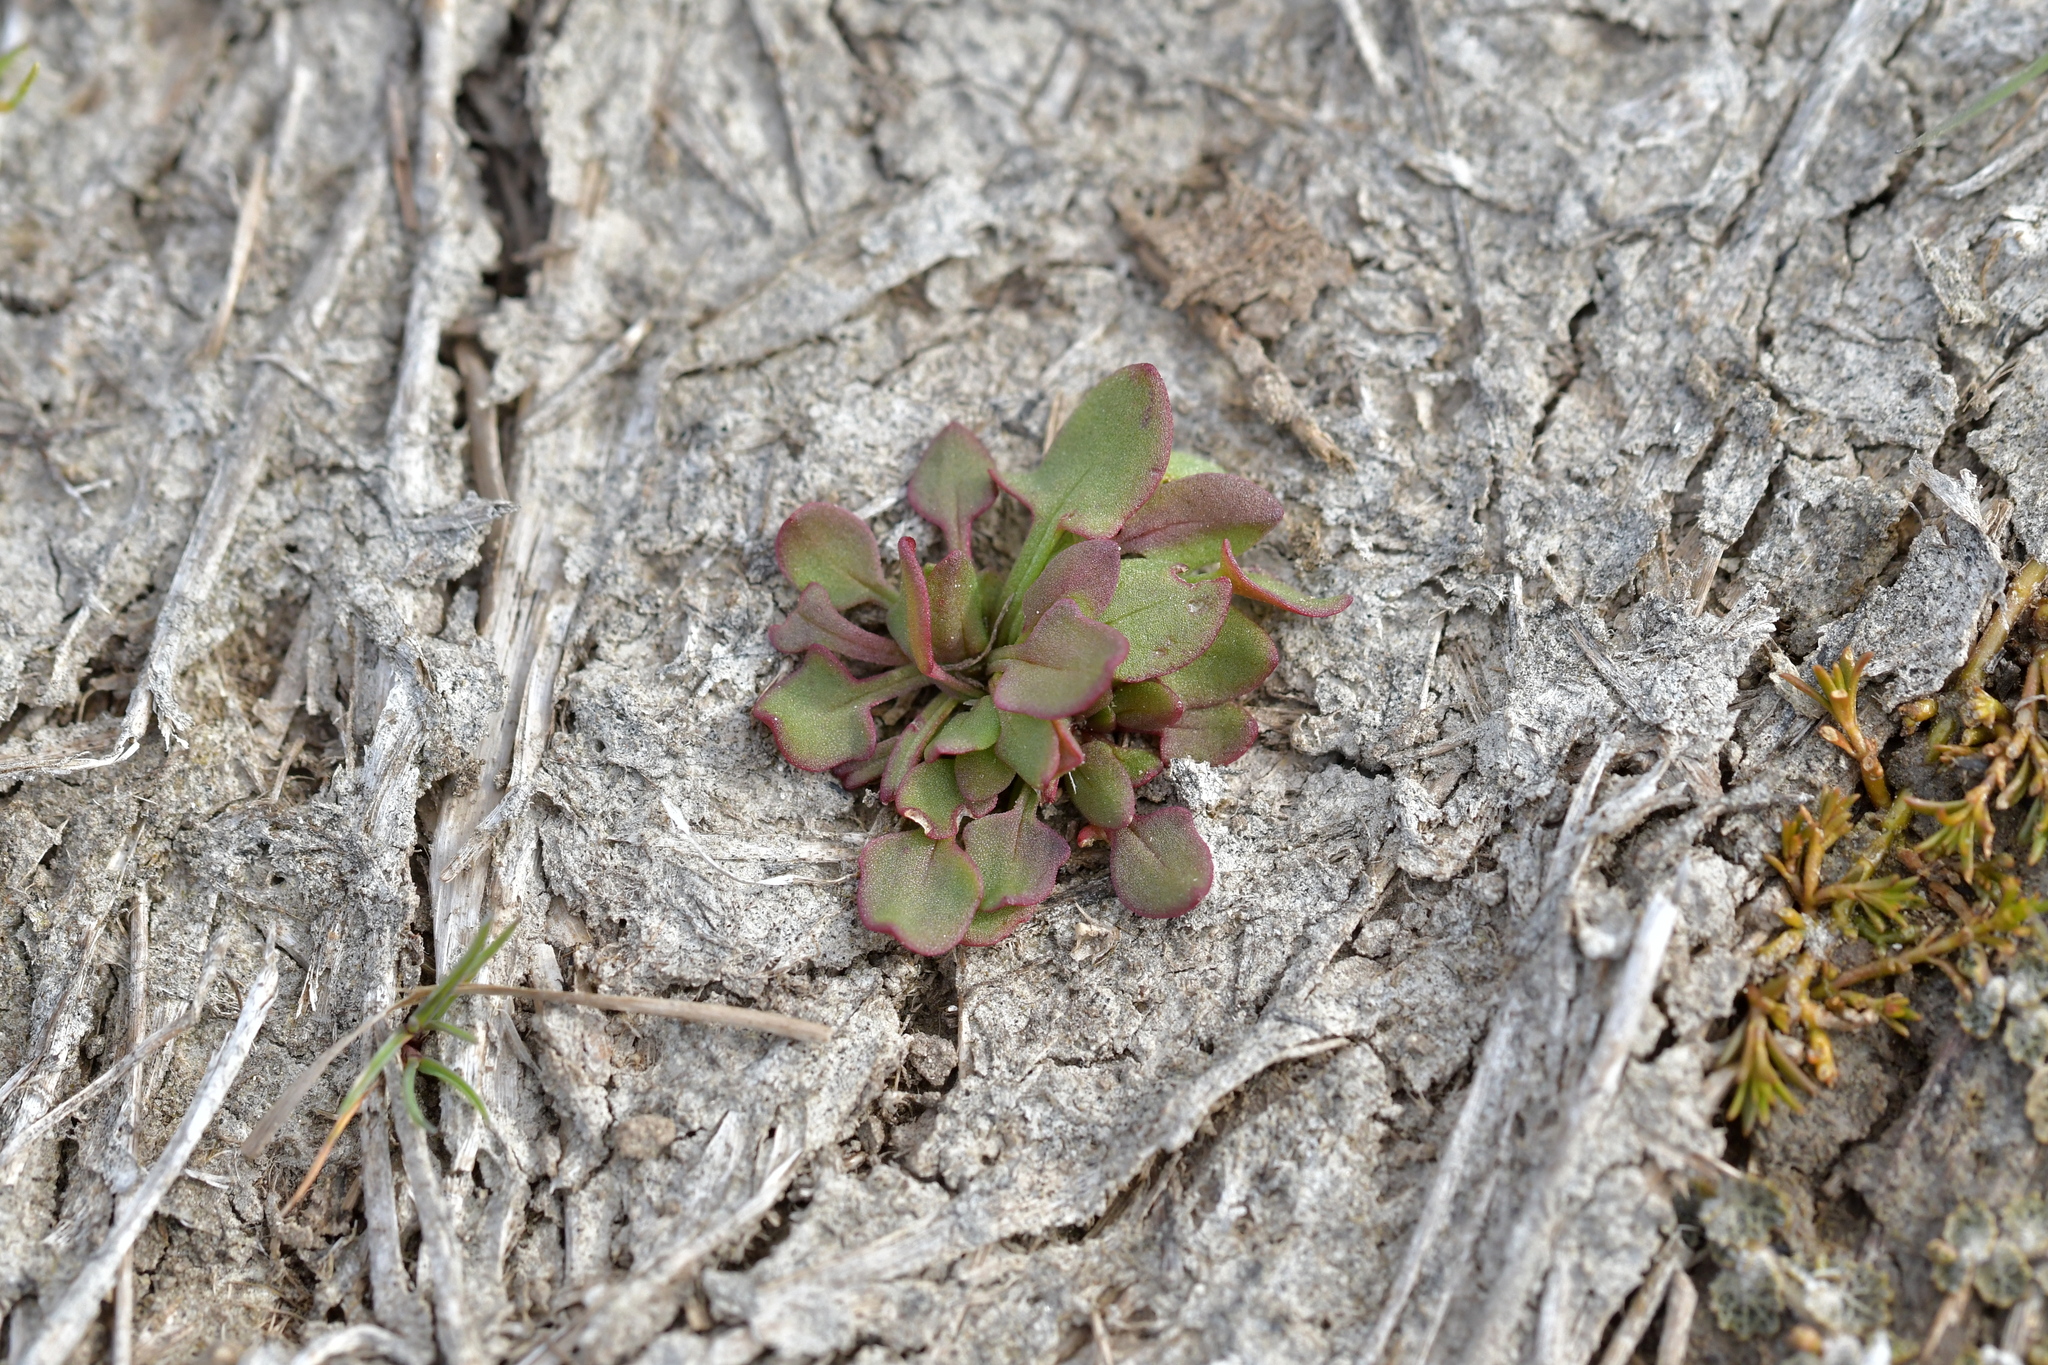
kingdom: Plantae
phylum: Tracheophyta
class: Magnoliopsida
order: Caryophyllales
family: Polygonaceae
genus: Rumex
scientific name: Rumex acetosella
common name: Common sheep sorrel
